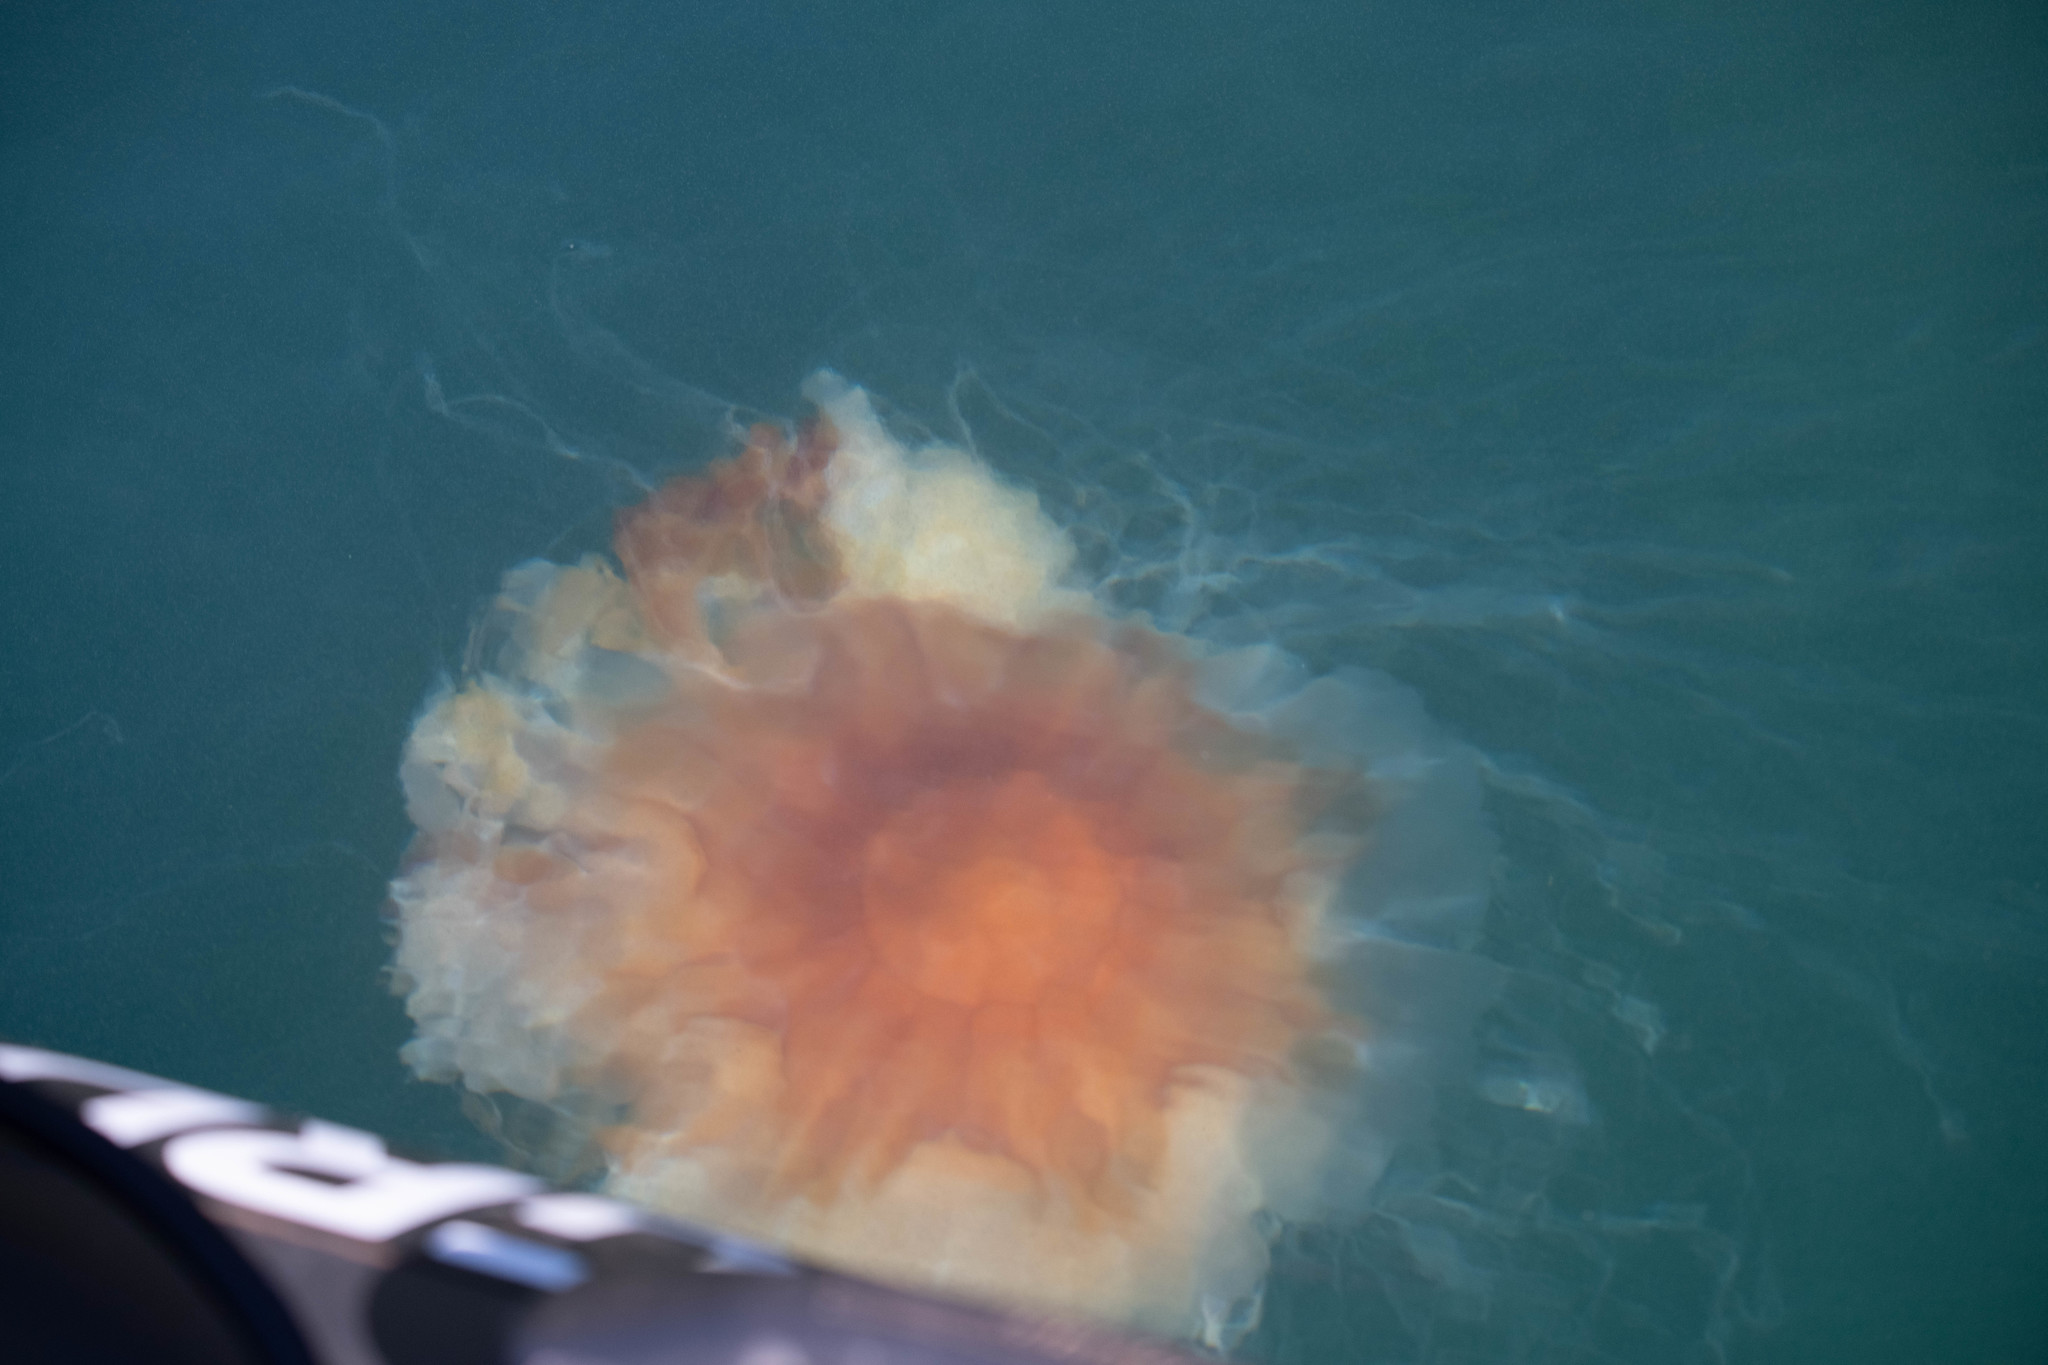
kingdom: Animalia
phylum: Cnidaria
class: Scyphozoa
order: Semaeostomeae
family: Cyaneidae
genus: Cyanea
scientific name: Cyanea capillata
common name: Lion's mane jellyfish
